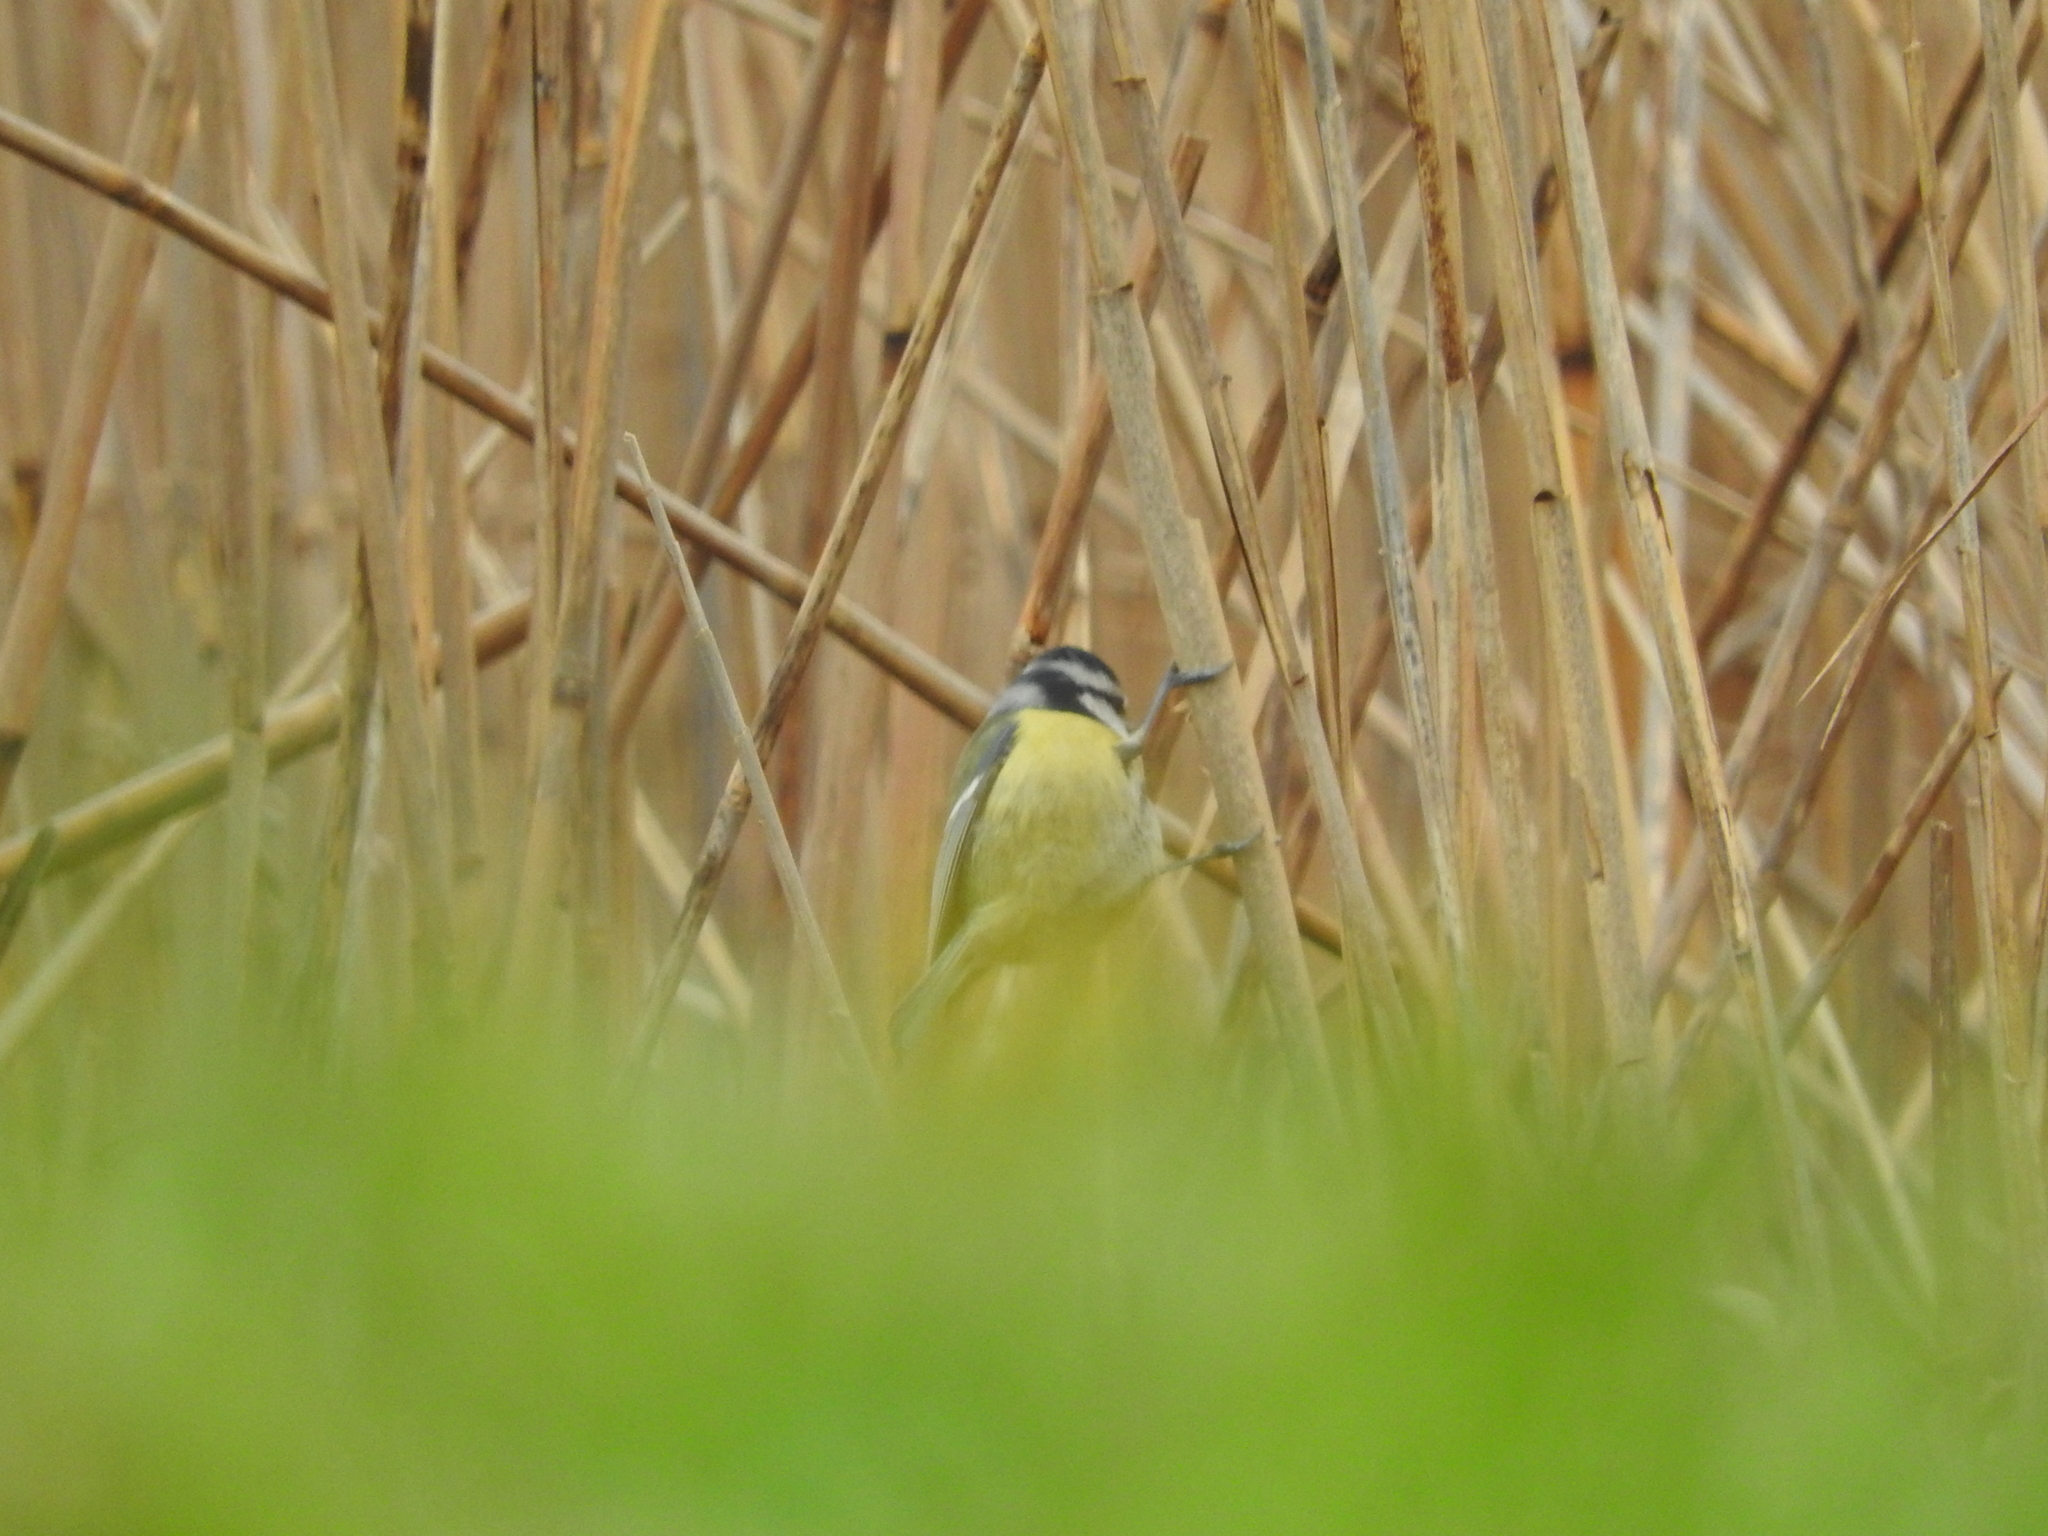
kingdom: Animalia
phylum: Chordata
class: Aves
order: Passeriformes
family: Paridae
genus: Cyanistes
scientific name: Cyanistes caeruleus
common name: Eurasian blue tit
